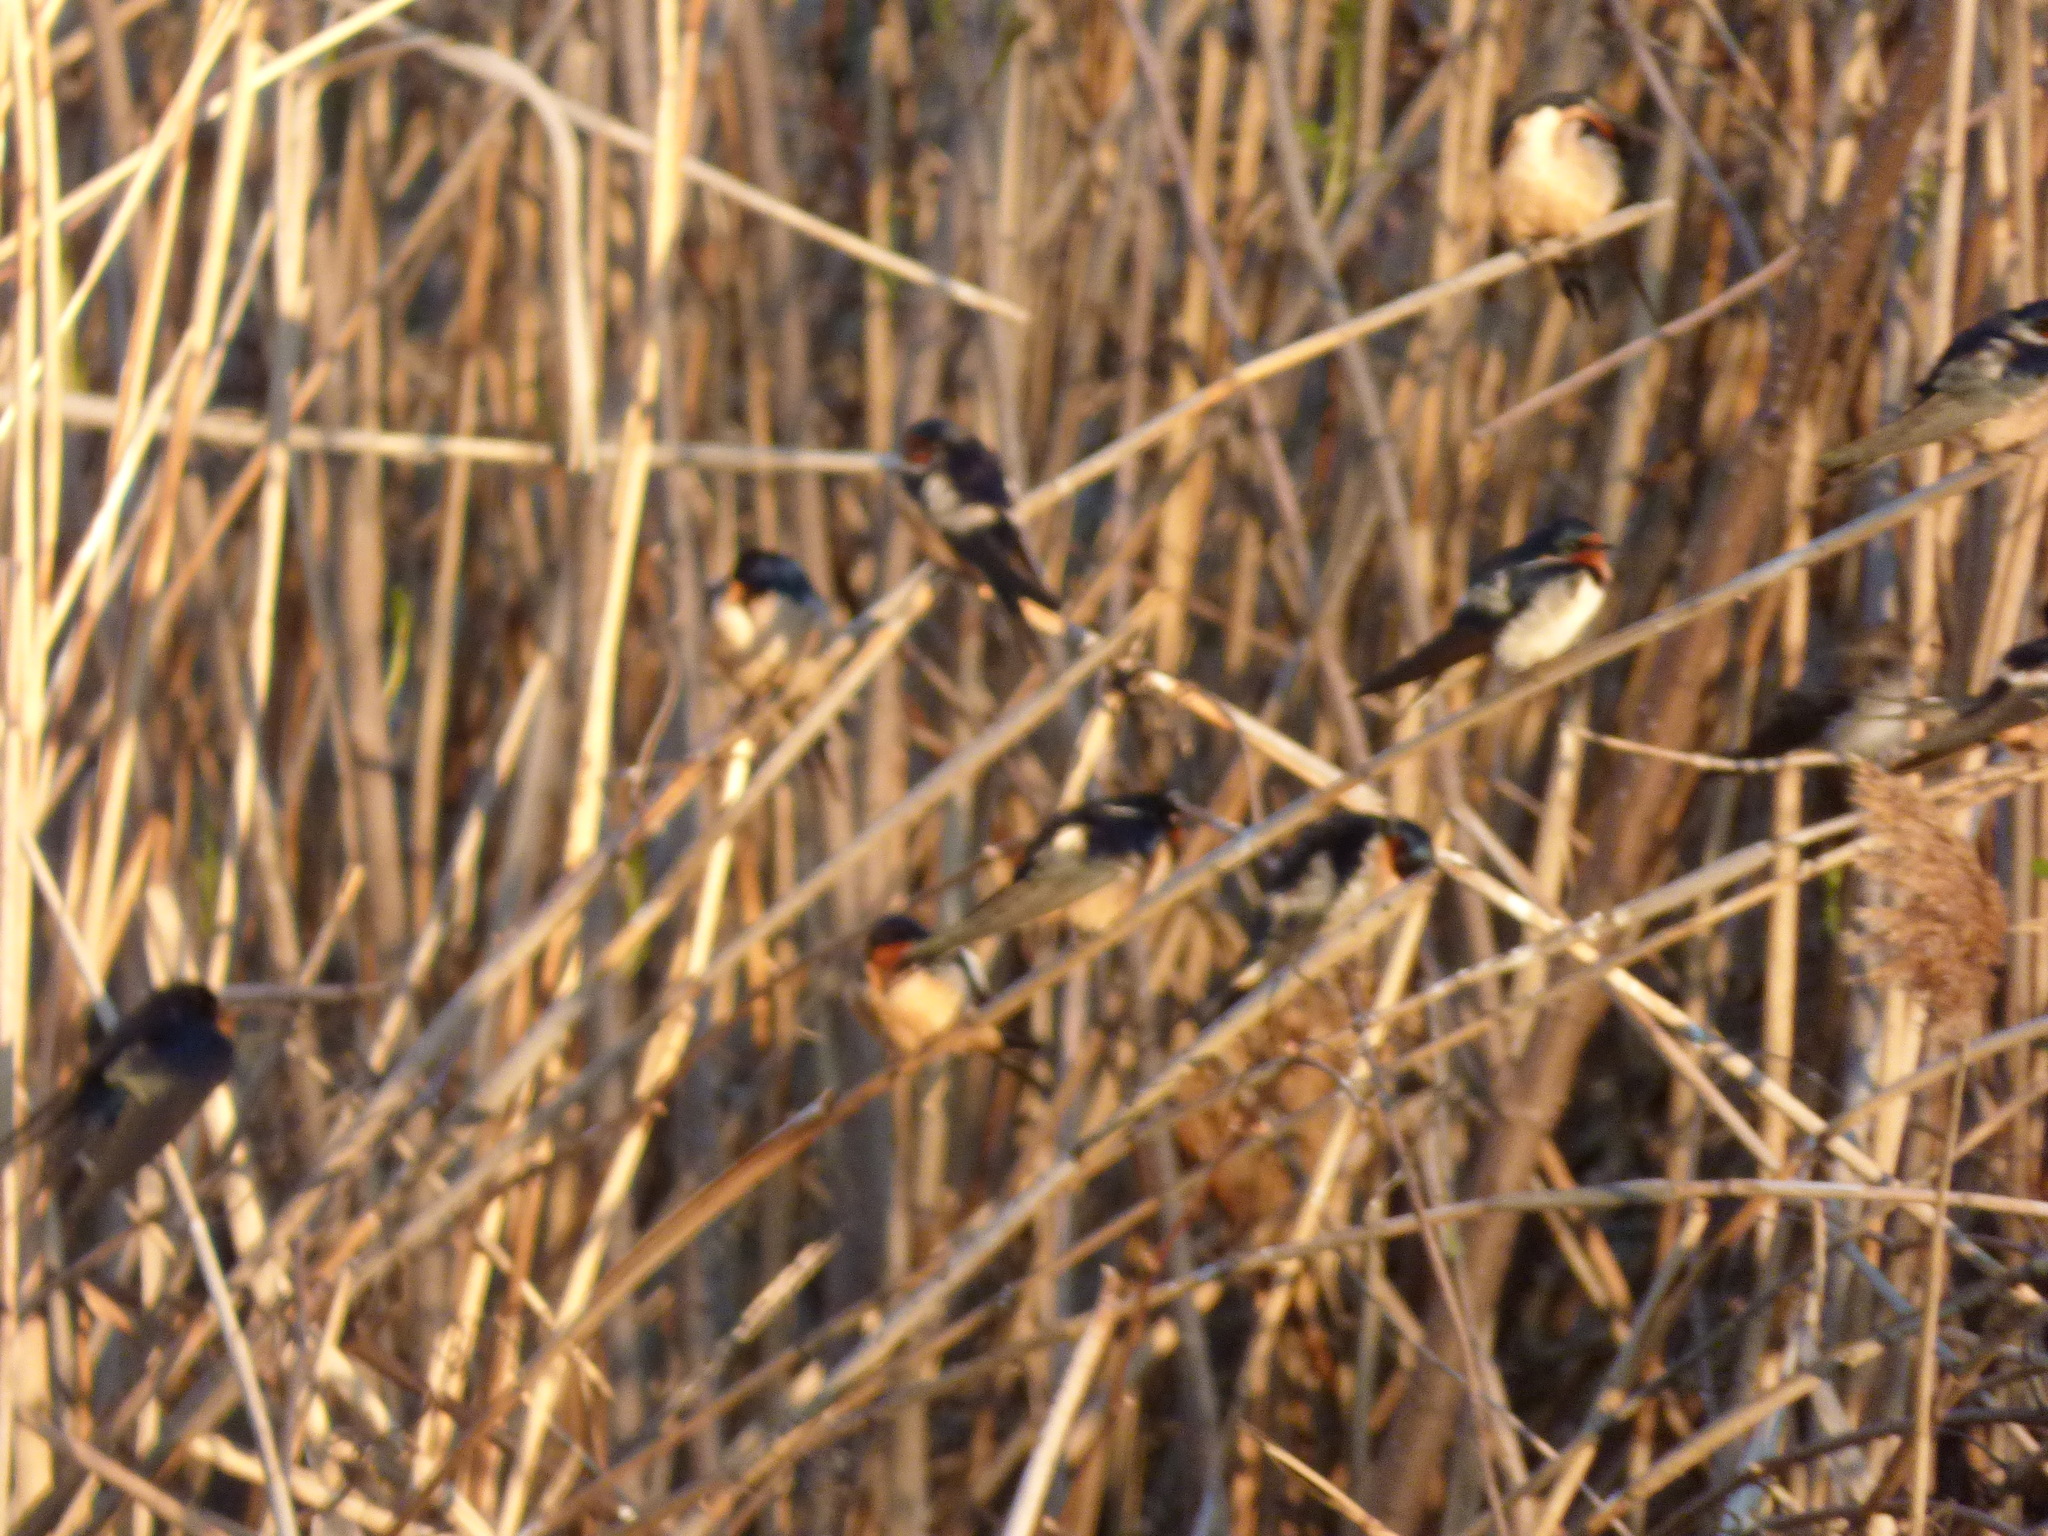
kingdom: Animalia
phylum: Chordata
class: Aves
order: Passeriformes
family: Hirundinidae
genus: Hirundo
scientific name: Hirundo rustica
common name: Barn swallow
